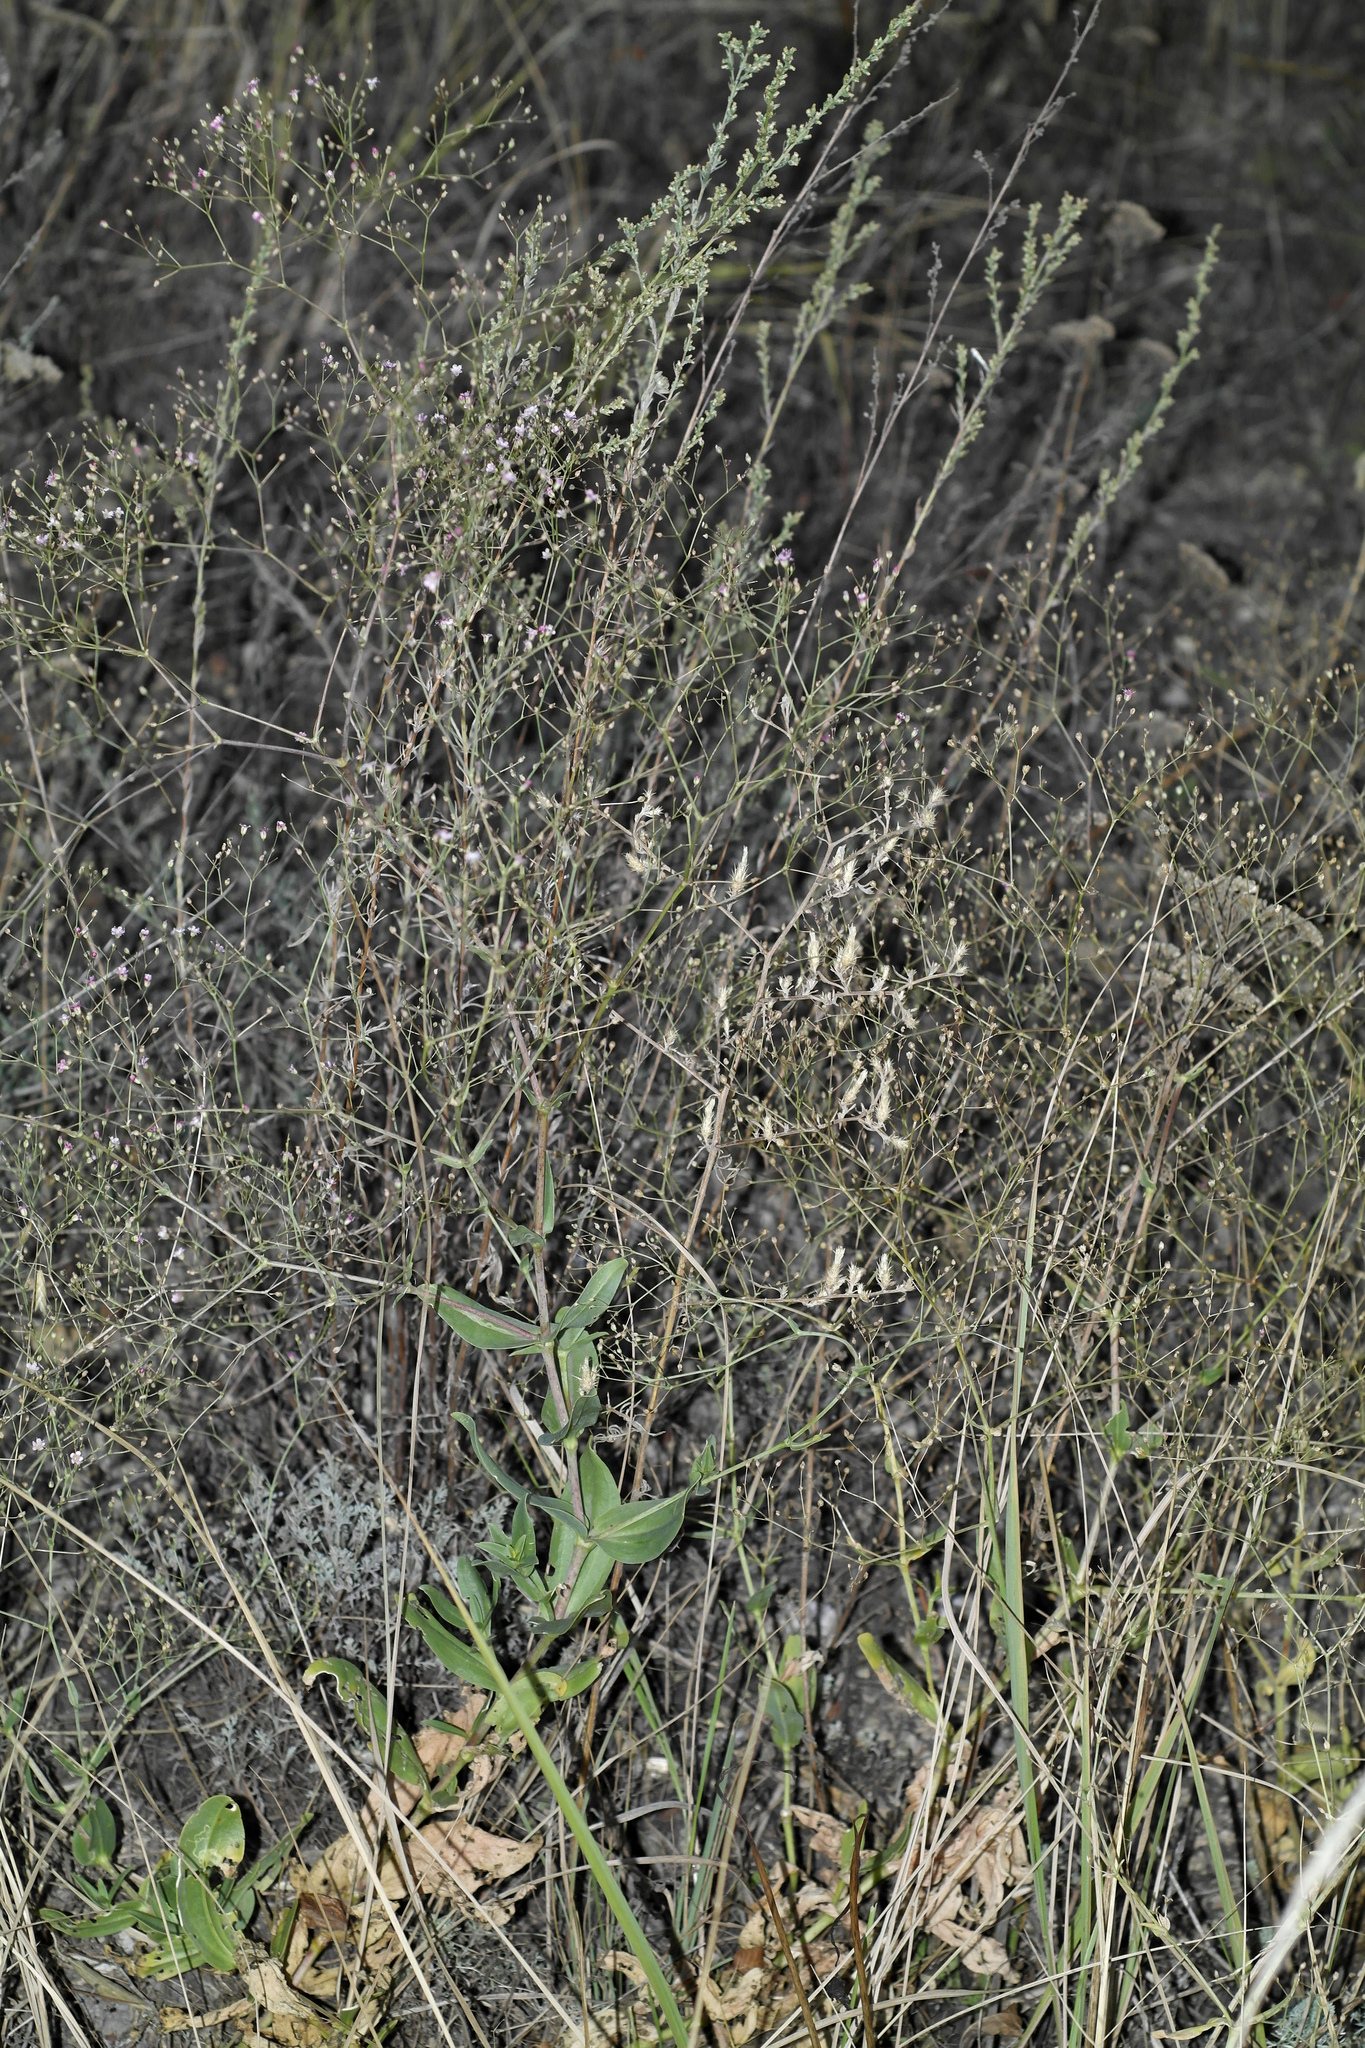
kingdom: Plantae
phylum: Tracheophyta
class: Magnoliopsida
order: Caryophyllales
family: Caryophyllaceae
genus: Gypsophila
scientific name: Gypsophila perfoliata
